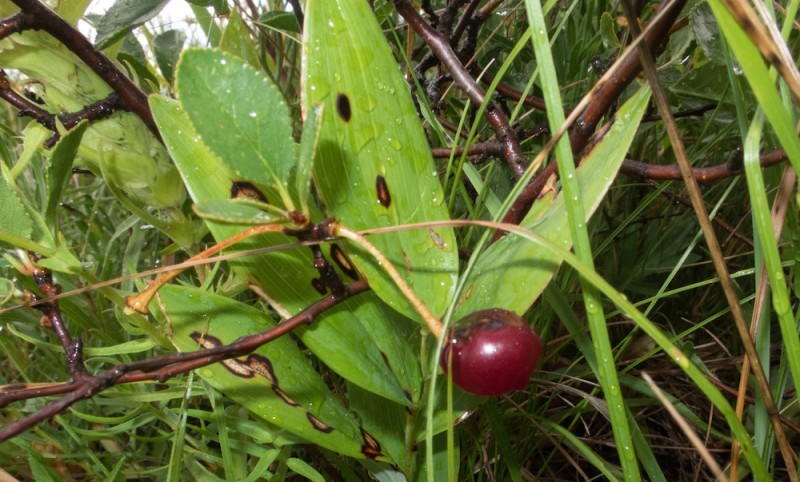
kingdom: Plantae
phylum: Tracheophyta
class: Magnoliopsida
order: Rosales
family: Rosaceae
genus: Prunus
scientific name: Prunus fruticosa
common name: European dwarf cherry
